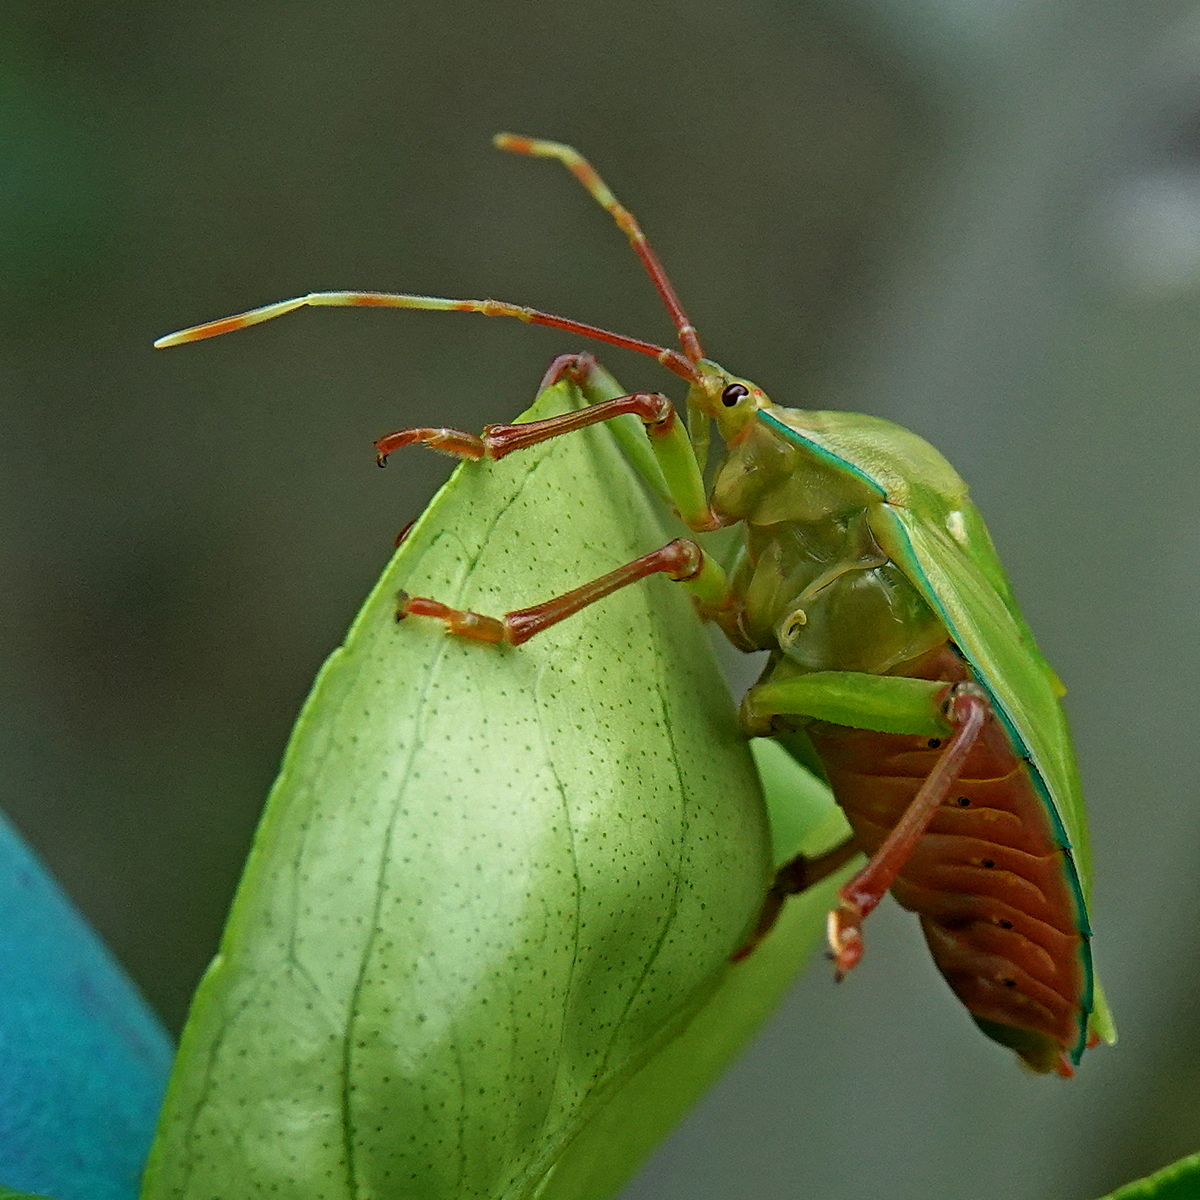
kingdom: Animalia
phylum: Arthropoda
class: Insecta
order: Hemiptera
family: Tessaratomidae
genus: Musgraveia
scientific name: Musgraveia sulciventris
